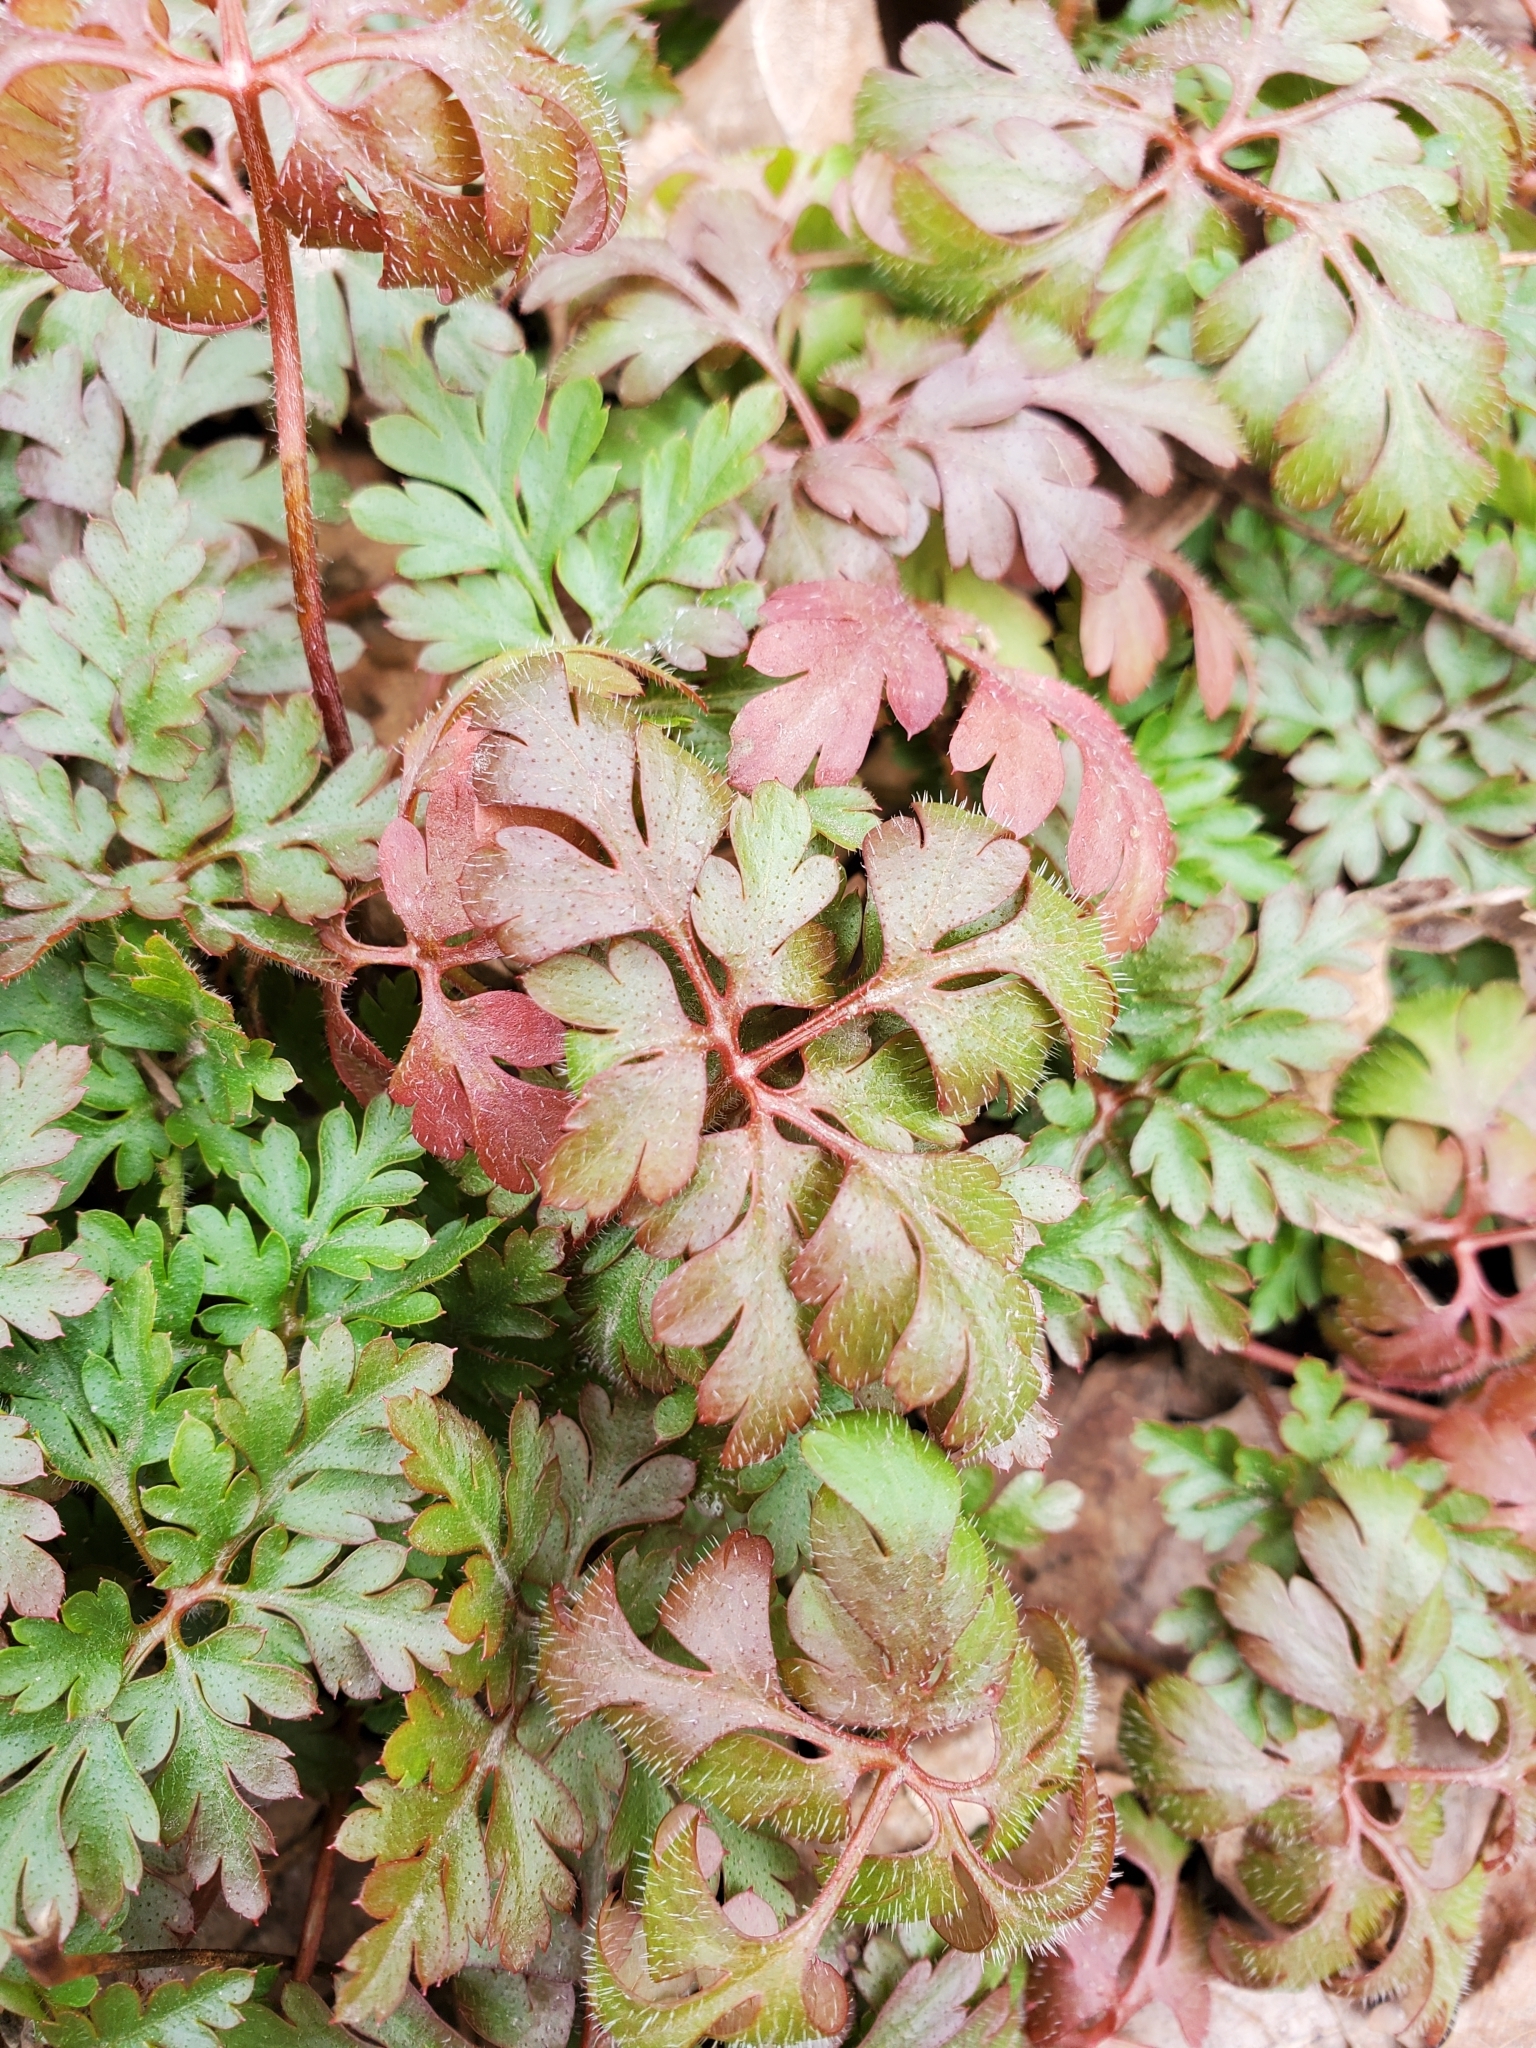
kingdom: Plantae
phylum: Tracheophyta
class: Magnoliopsida
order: Geraniales
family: Geraniaceae
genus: Geranium
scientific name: Geranium robertianum
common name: Herb-robert
